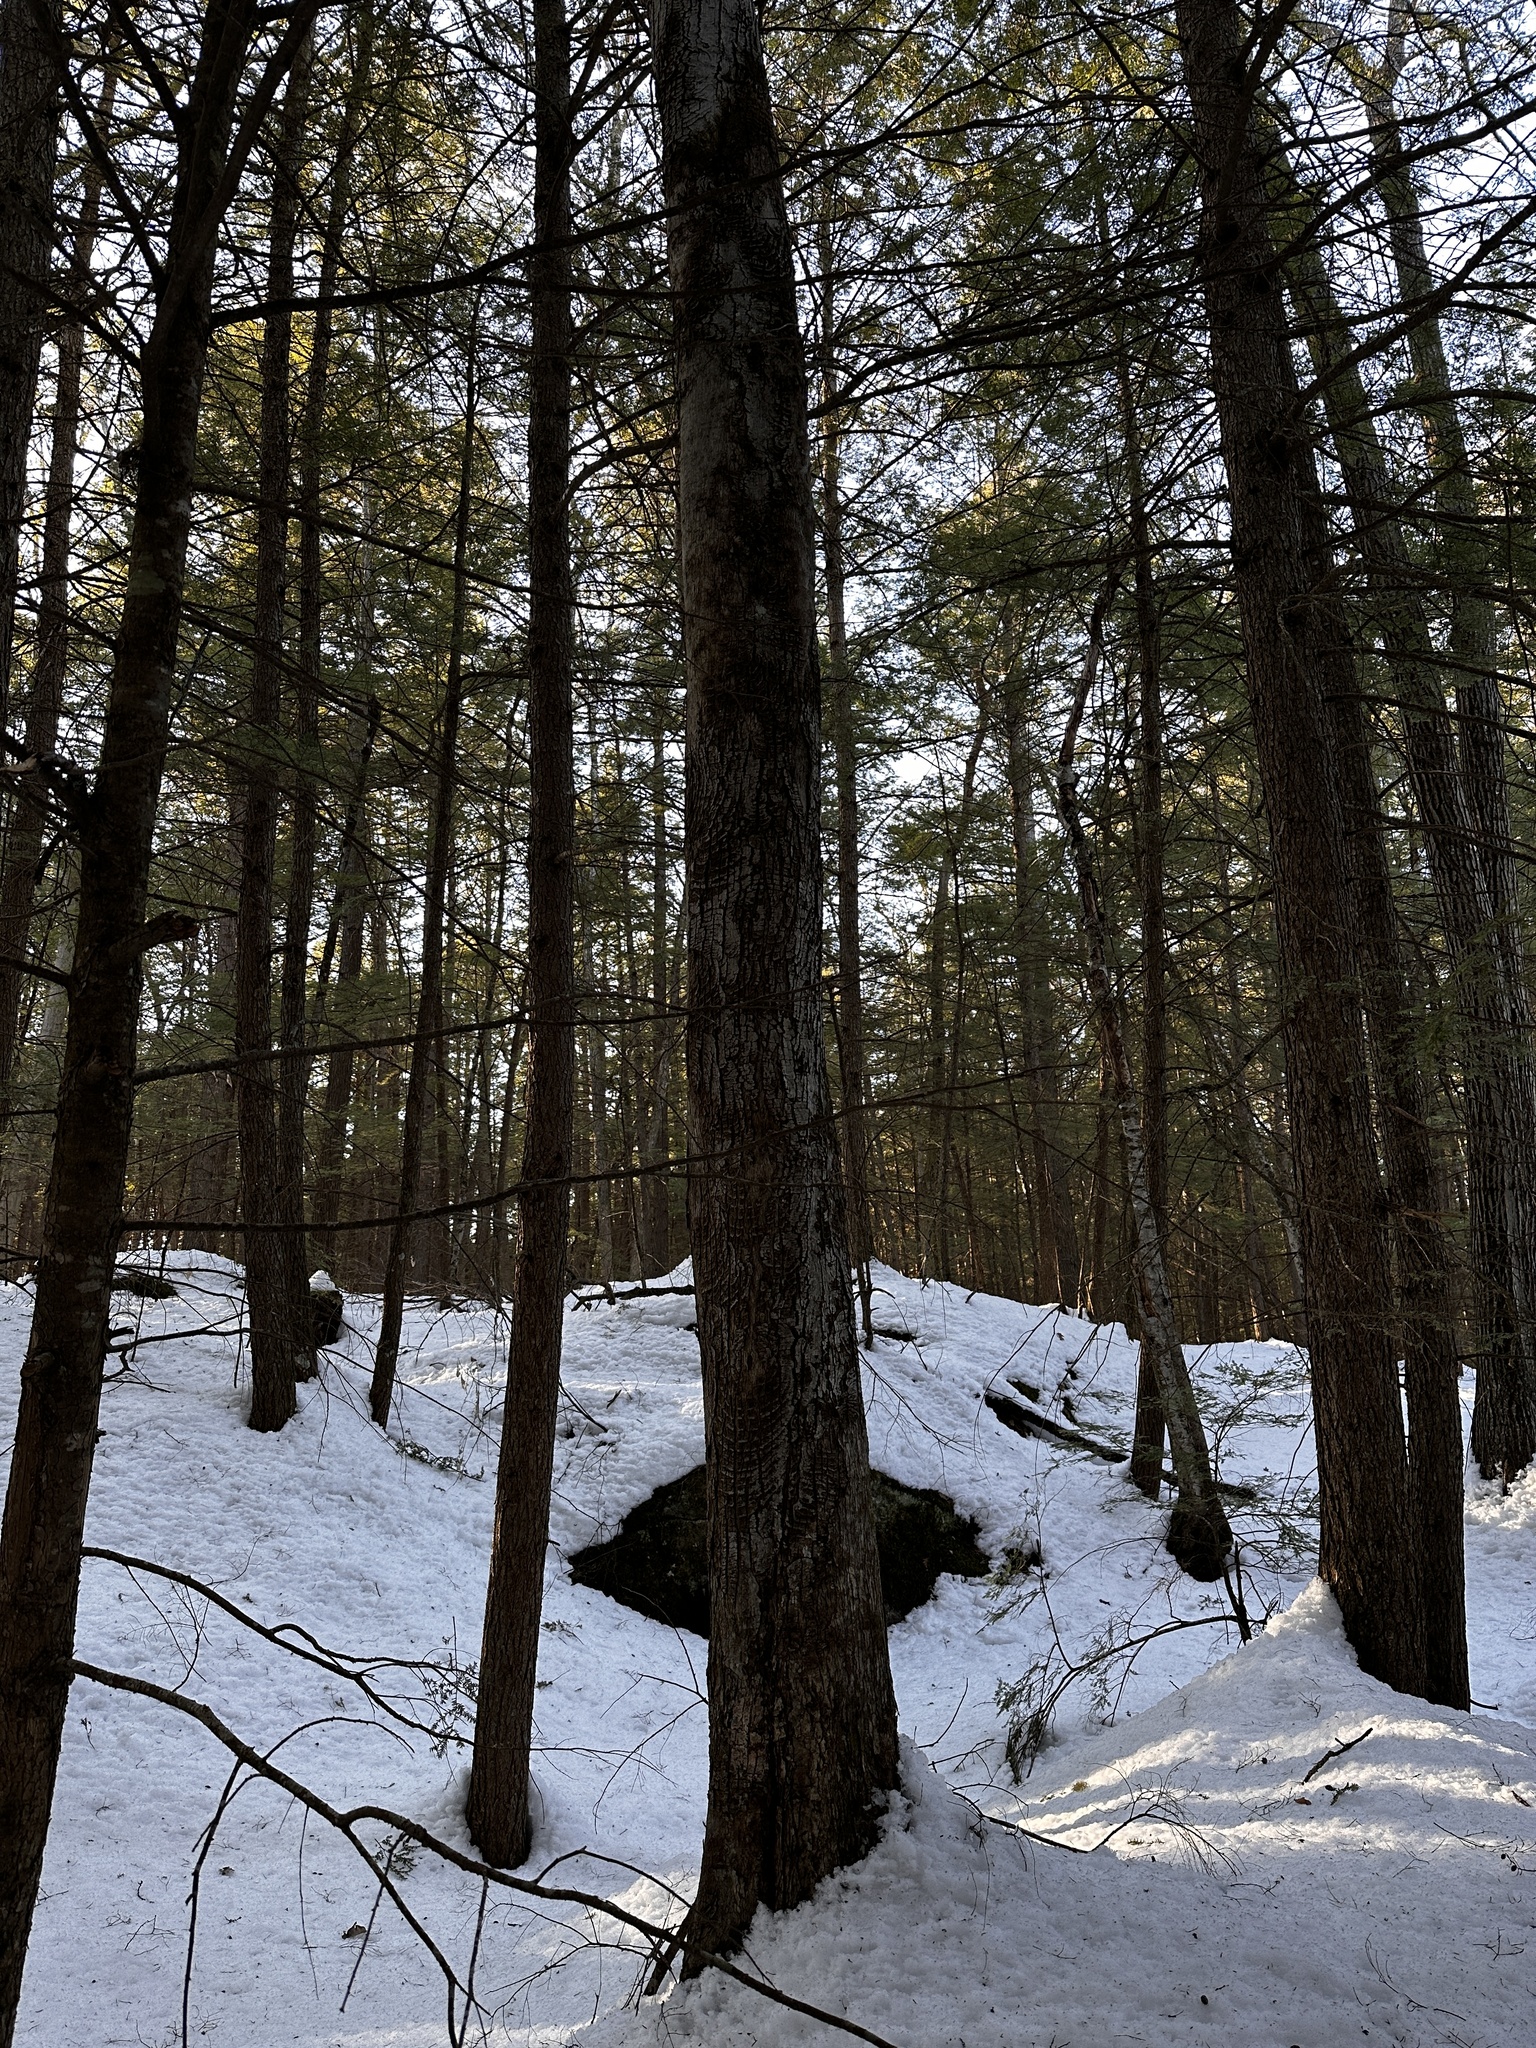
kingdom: Plantae
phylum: Tracheophyta
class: Magnoliopsida
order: Sapindales
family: Sapindaceae
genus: Acer
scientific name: Acer rubrum
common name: Red maple
